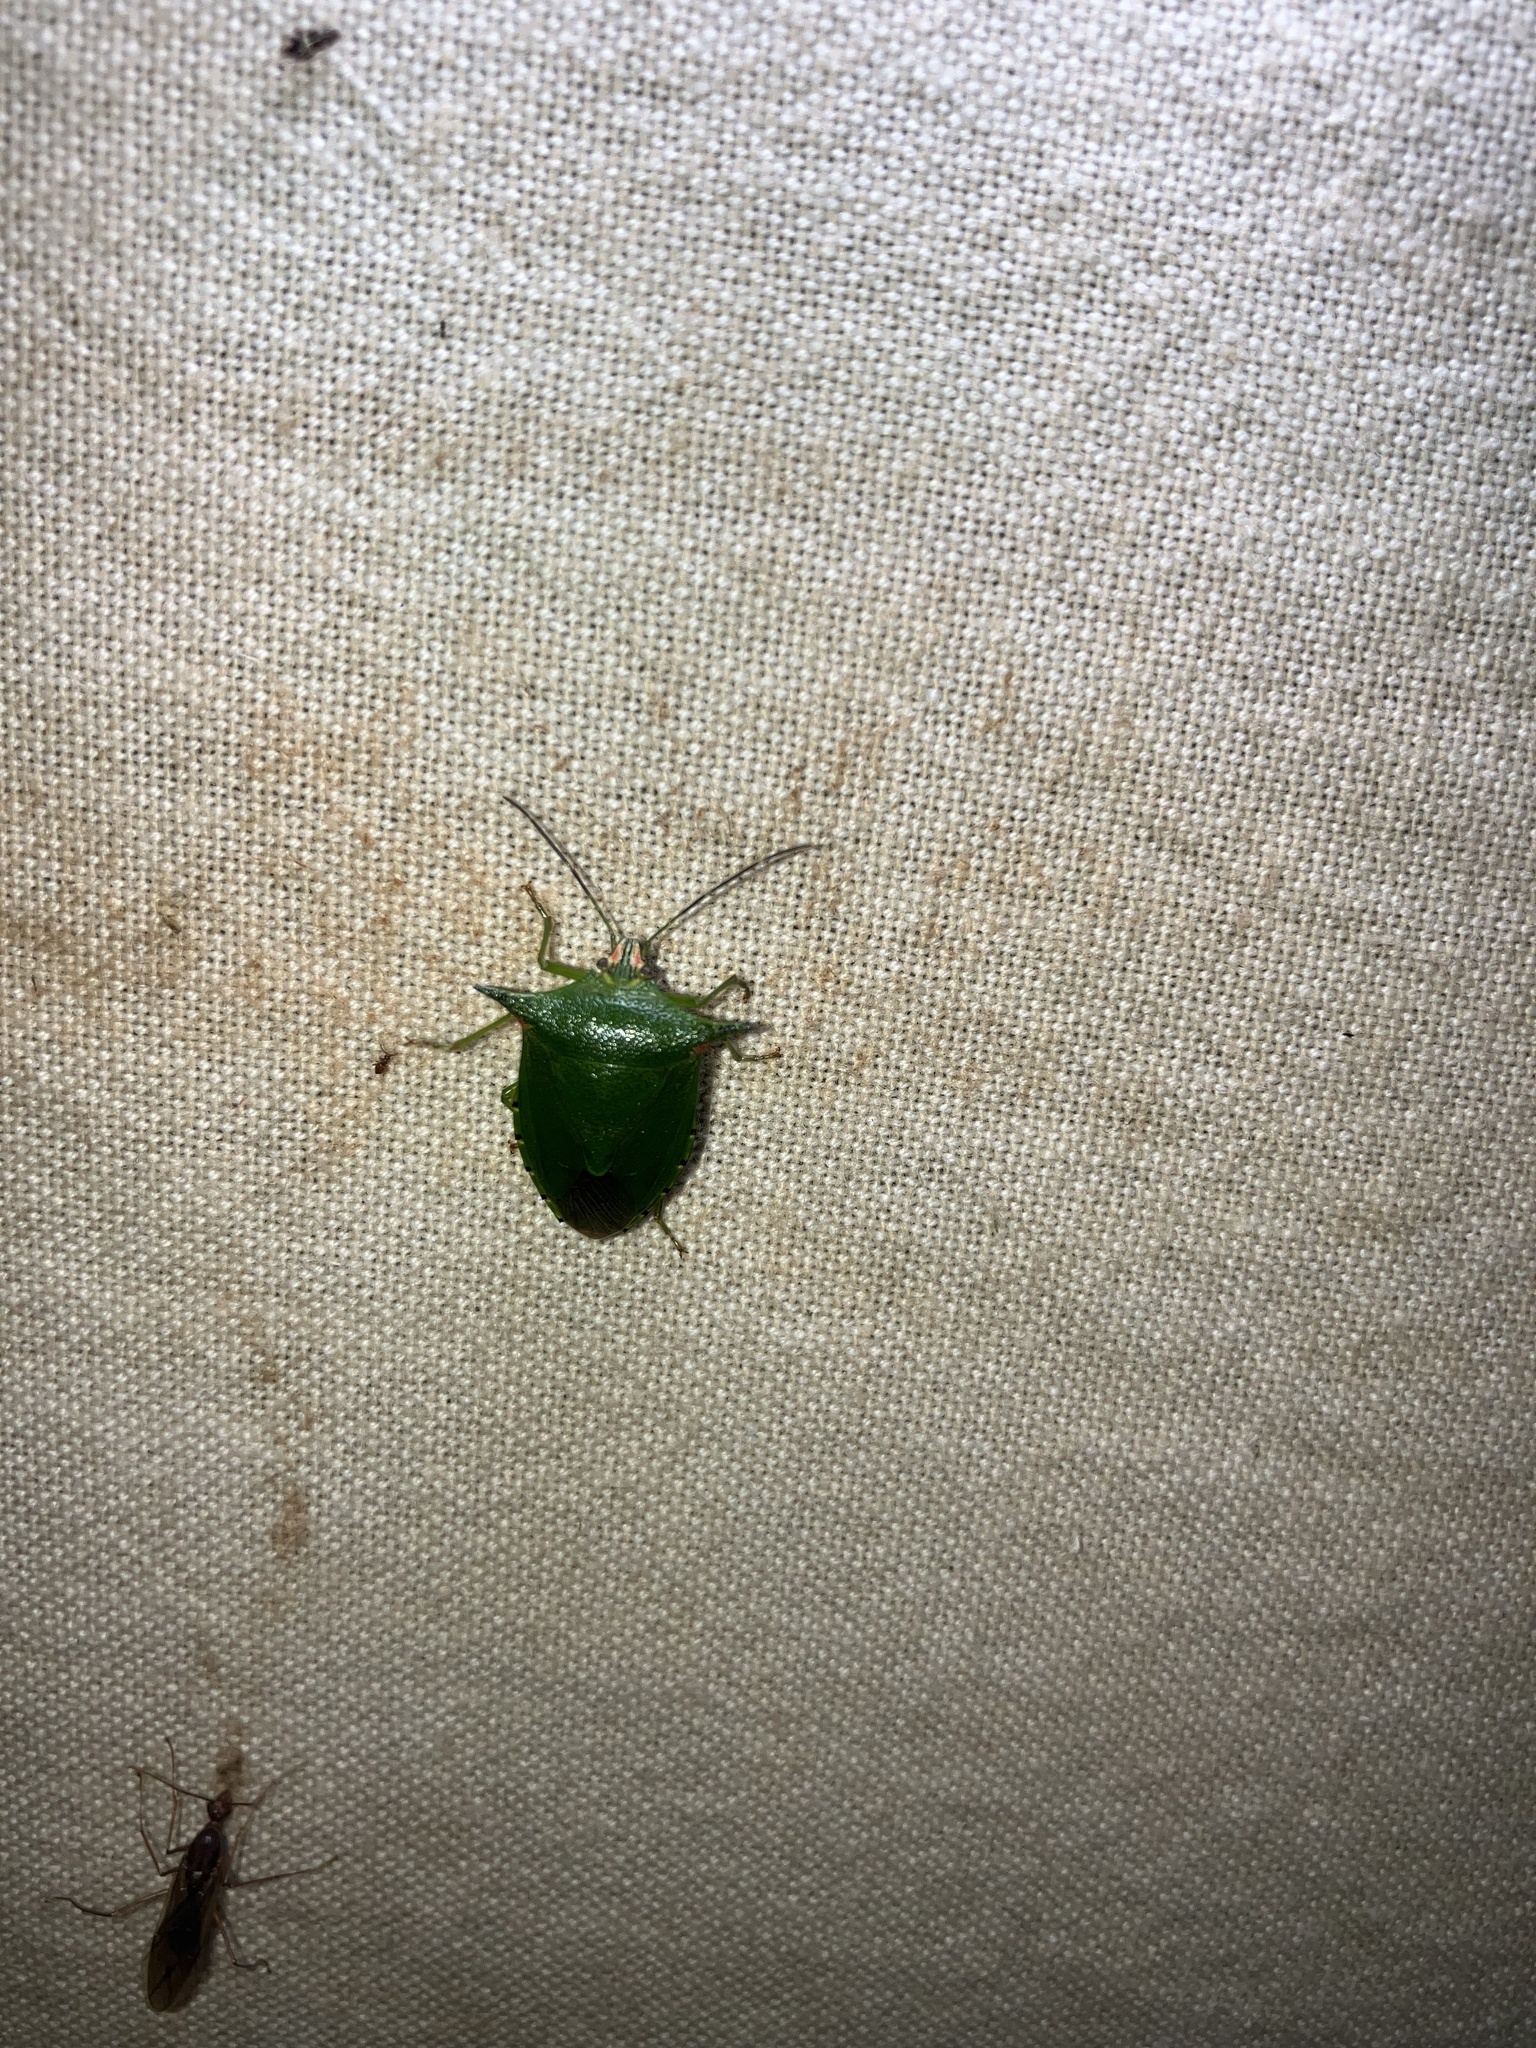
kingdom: Animalia
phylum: Arthropoda
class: Insecta
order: Hemiptera
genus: Sabaeus
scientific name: Sabaeus
